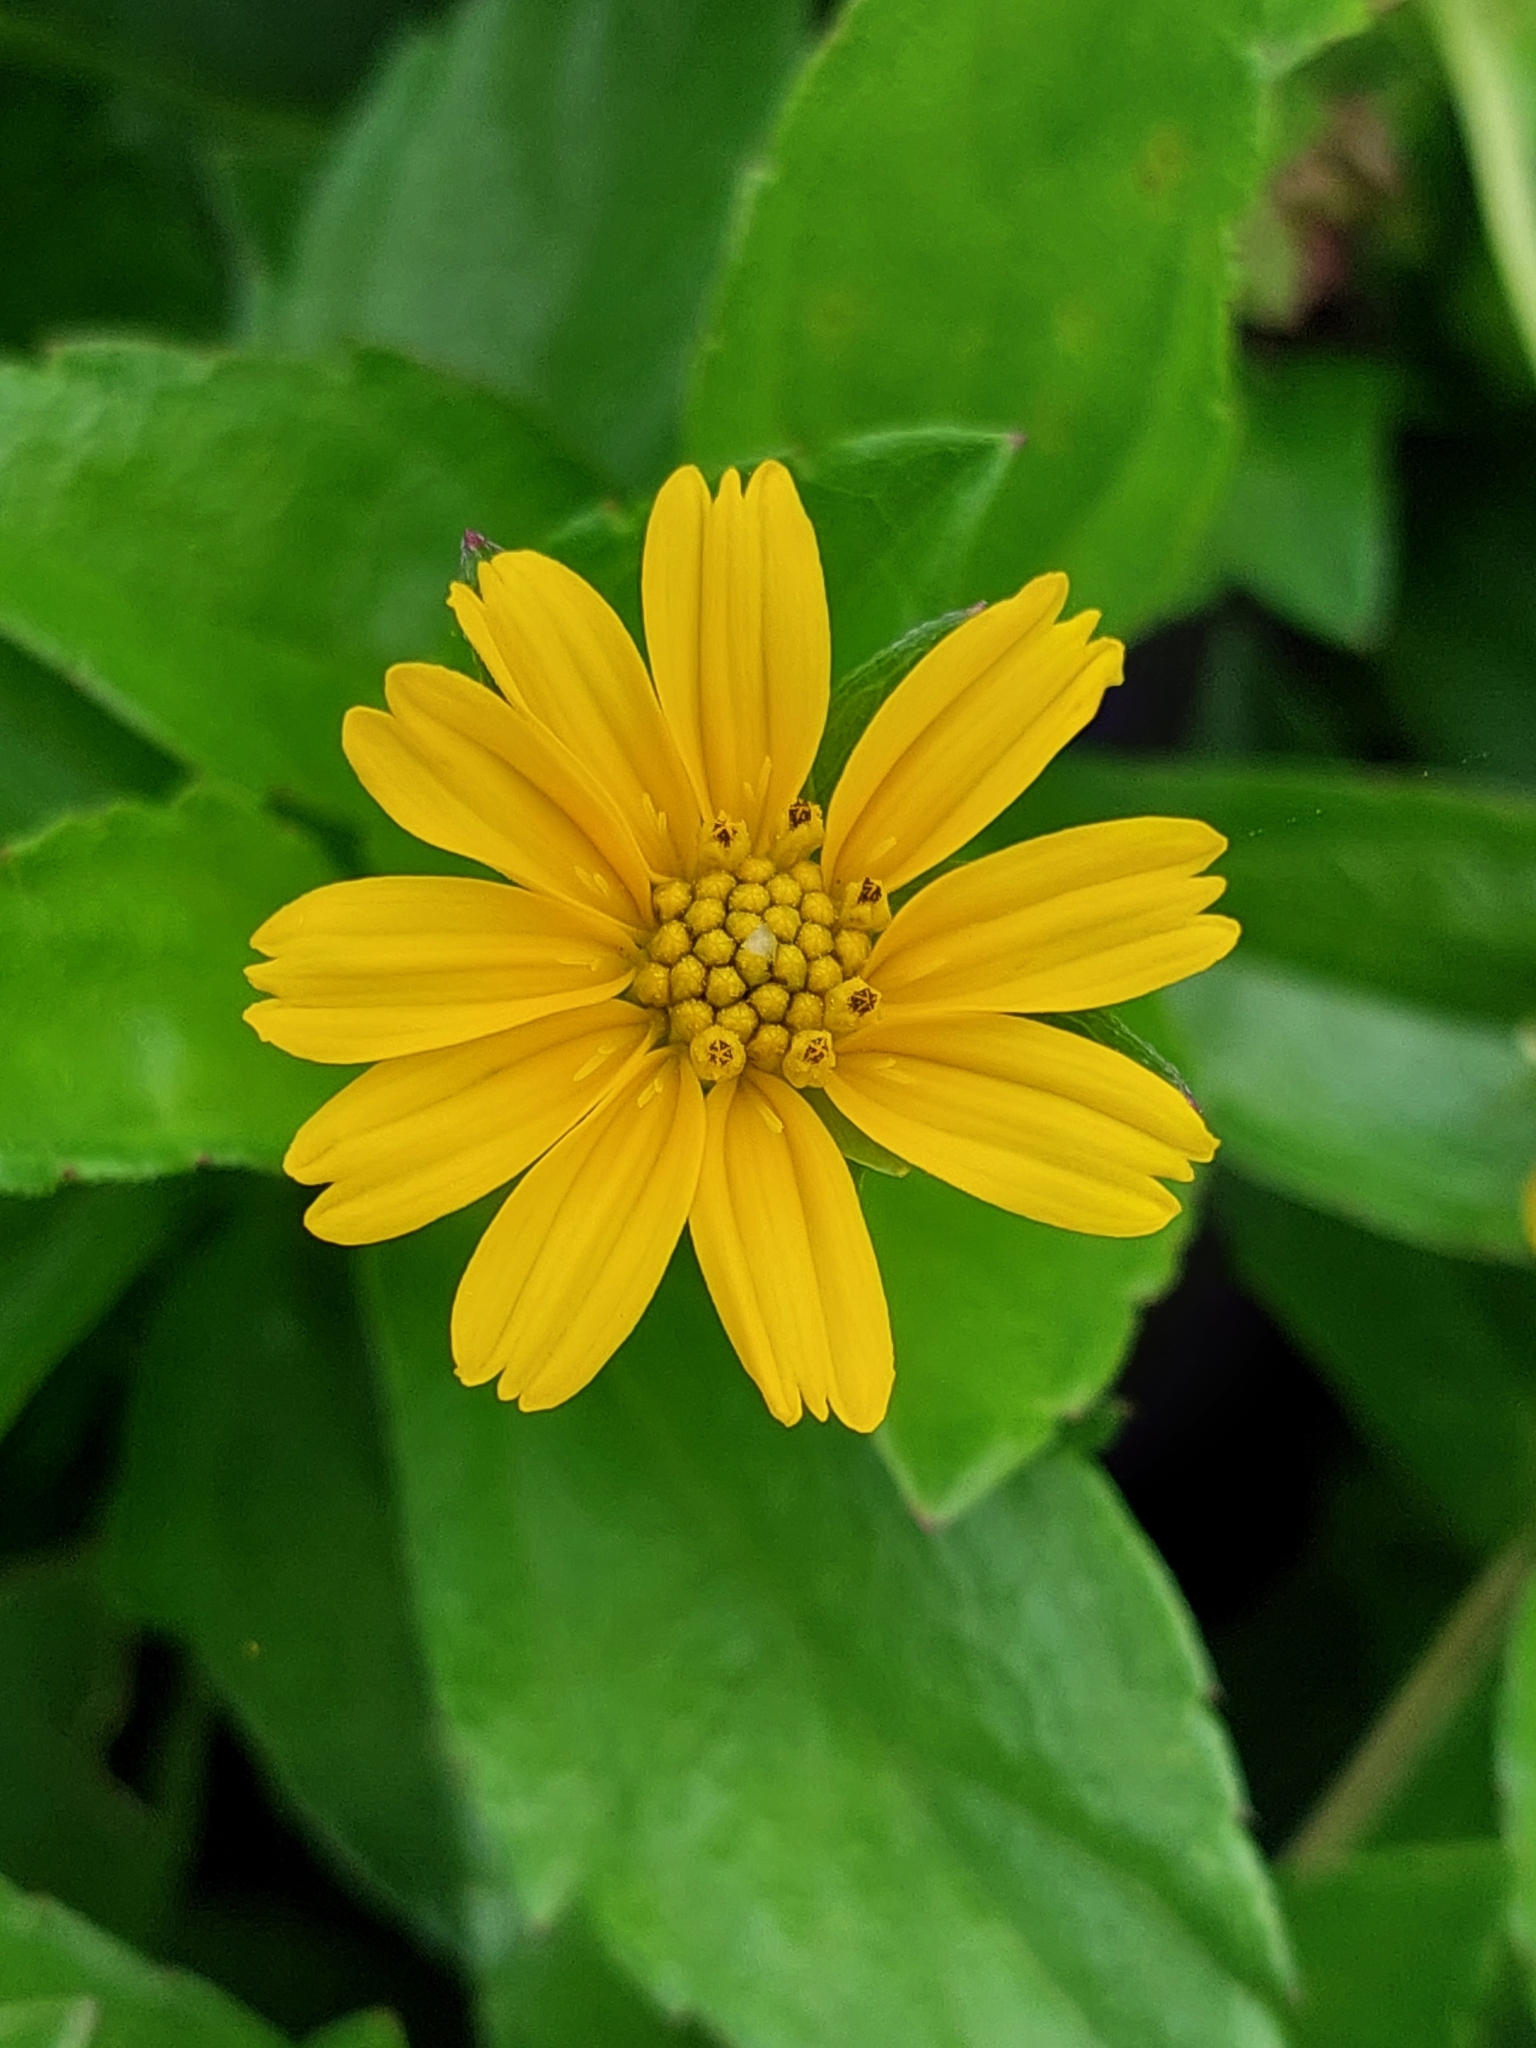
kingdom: Plantae
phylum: Tracheophyta
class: Magnoliopsida
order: Asterales
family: Asteraceae
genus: Sphagneticola
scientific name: Sphagneticola trilobata
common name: Bay biscayne creeping-oxeye
